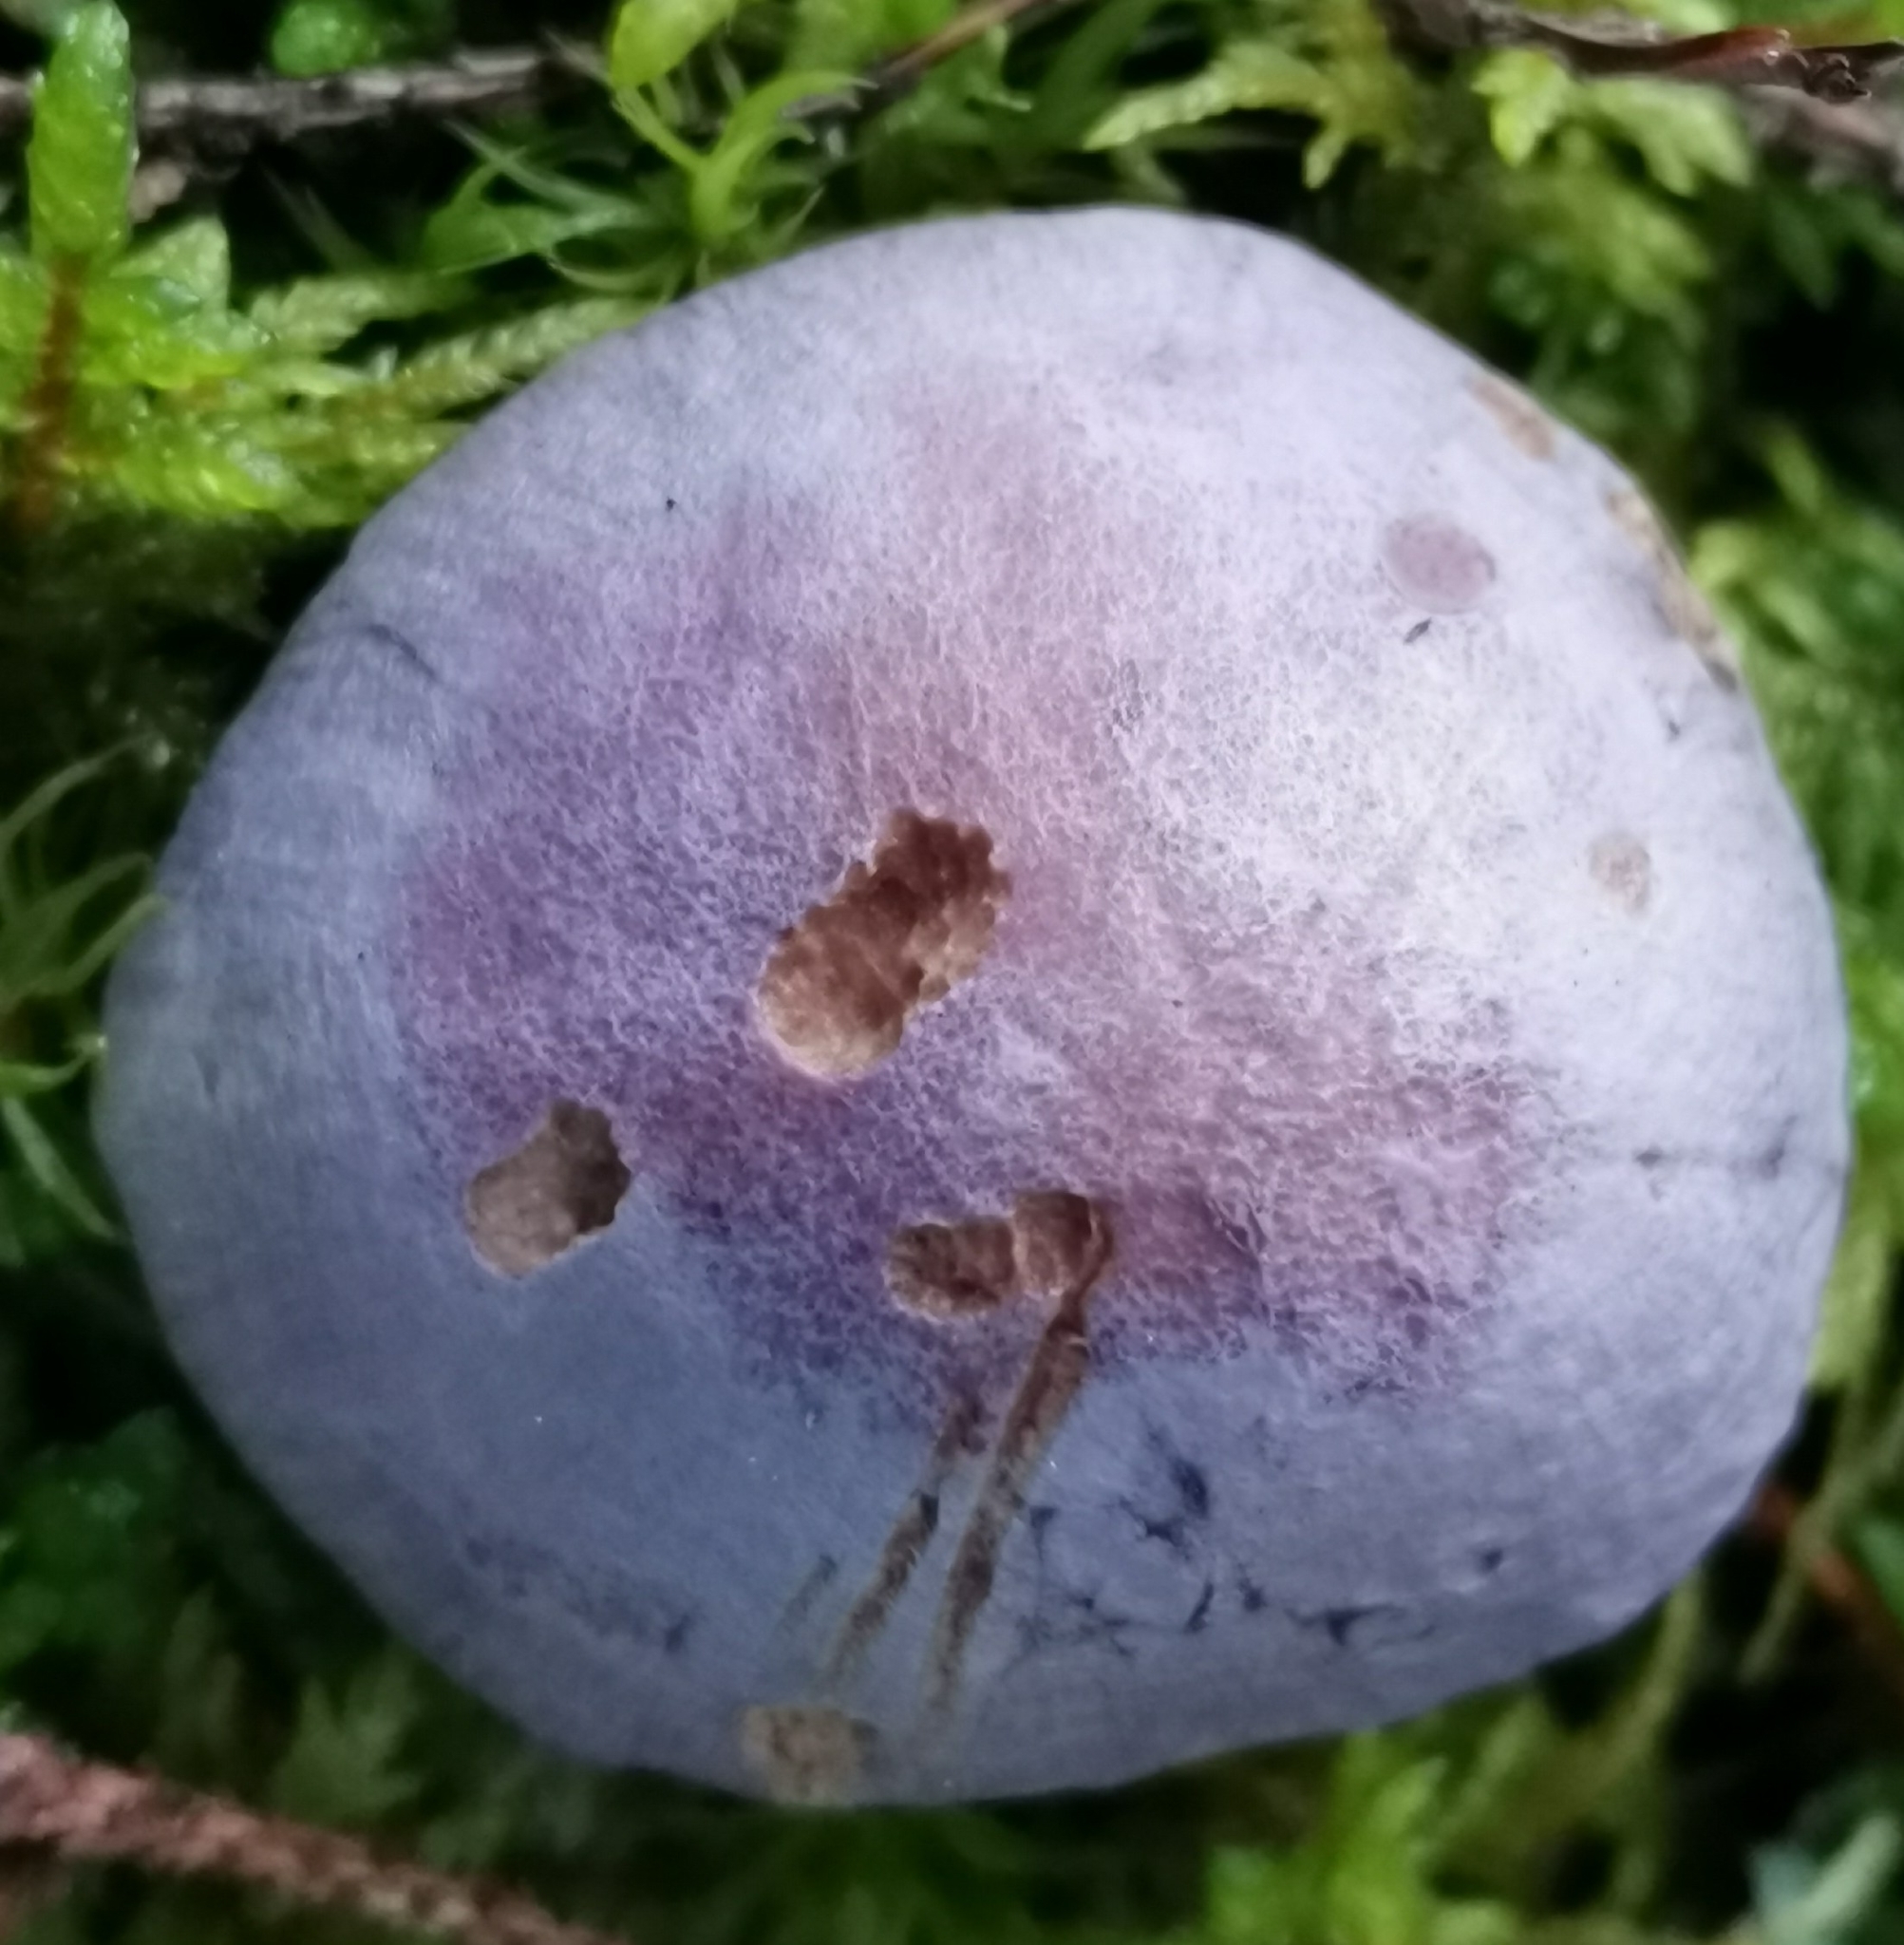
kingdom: Fungi
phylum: Basidiomycota
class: Agaricomycetes
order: Agaricales
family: Cortinariaceae
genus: Cortinarius
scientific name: Cortinarius traganus
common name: Gassy webcap
